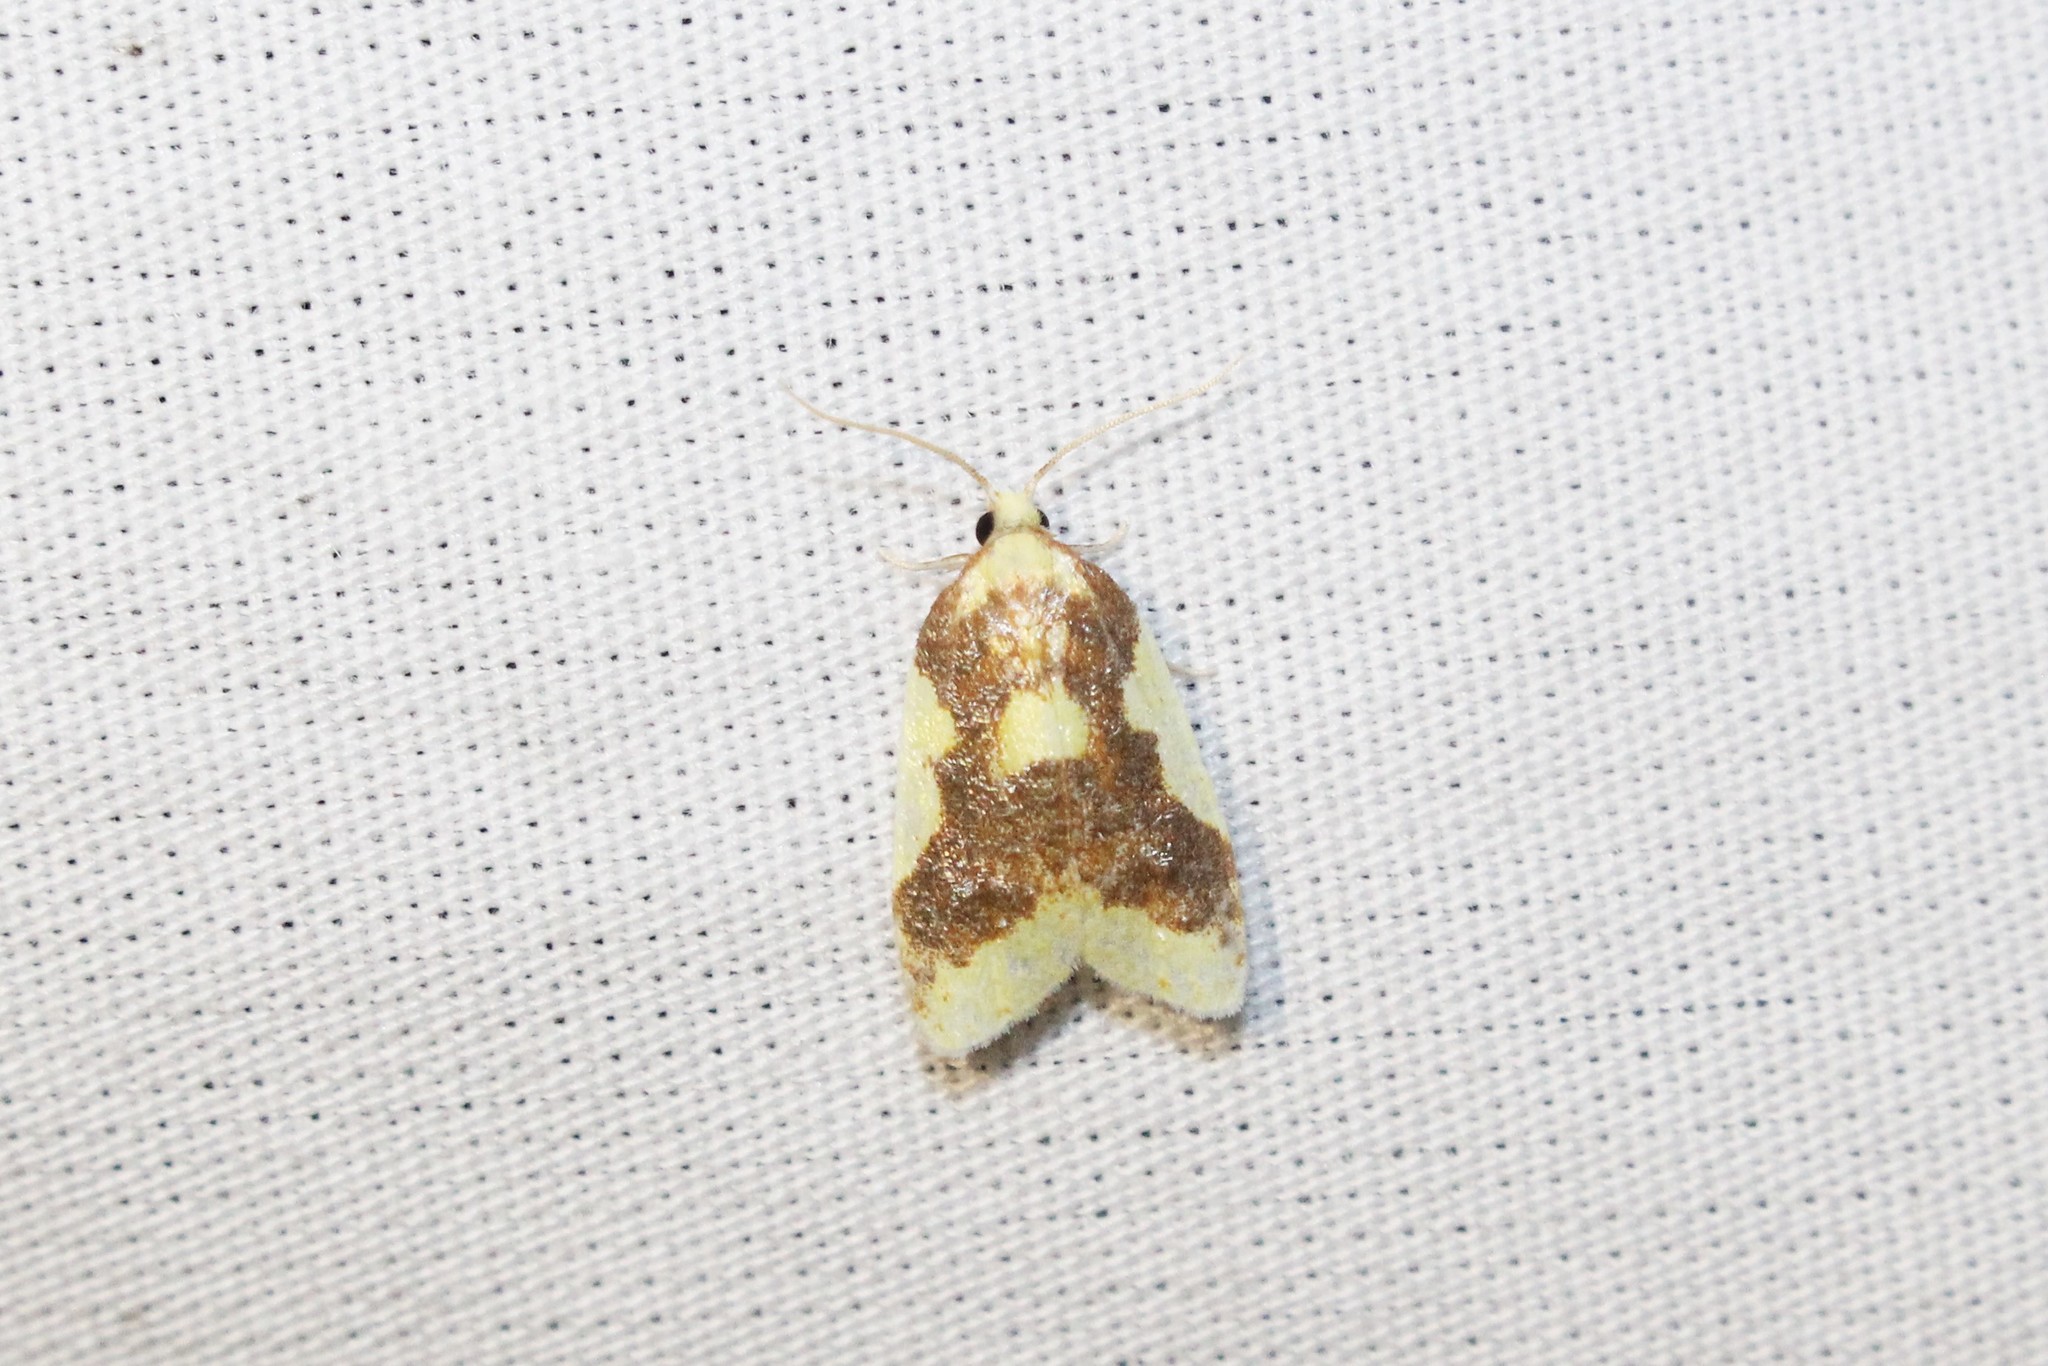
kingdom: Animalia
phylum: Arthropoda
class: Insecta
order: Lepidoptera
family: Tortricidae
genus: Sparganothis
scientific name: Sparganothis pulcherrimana
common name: Beautiful sparganothis
